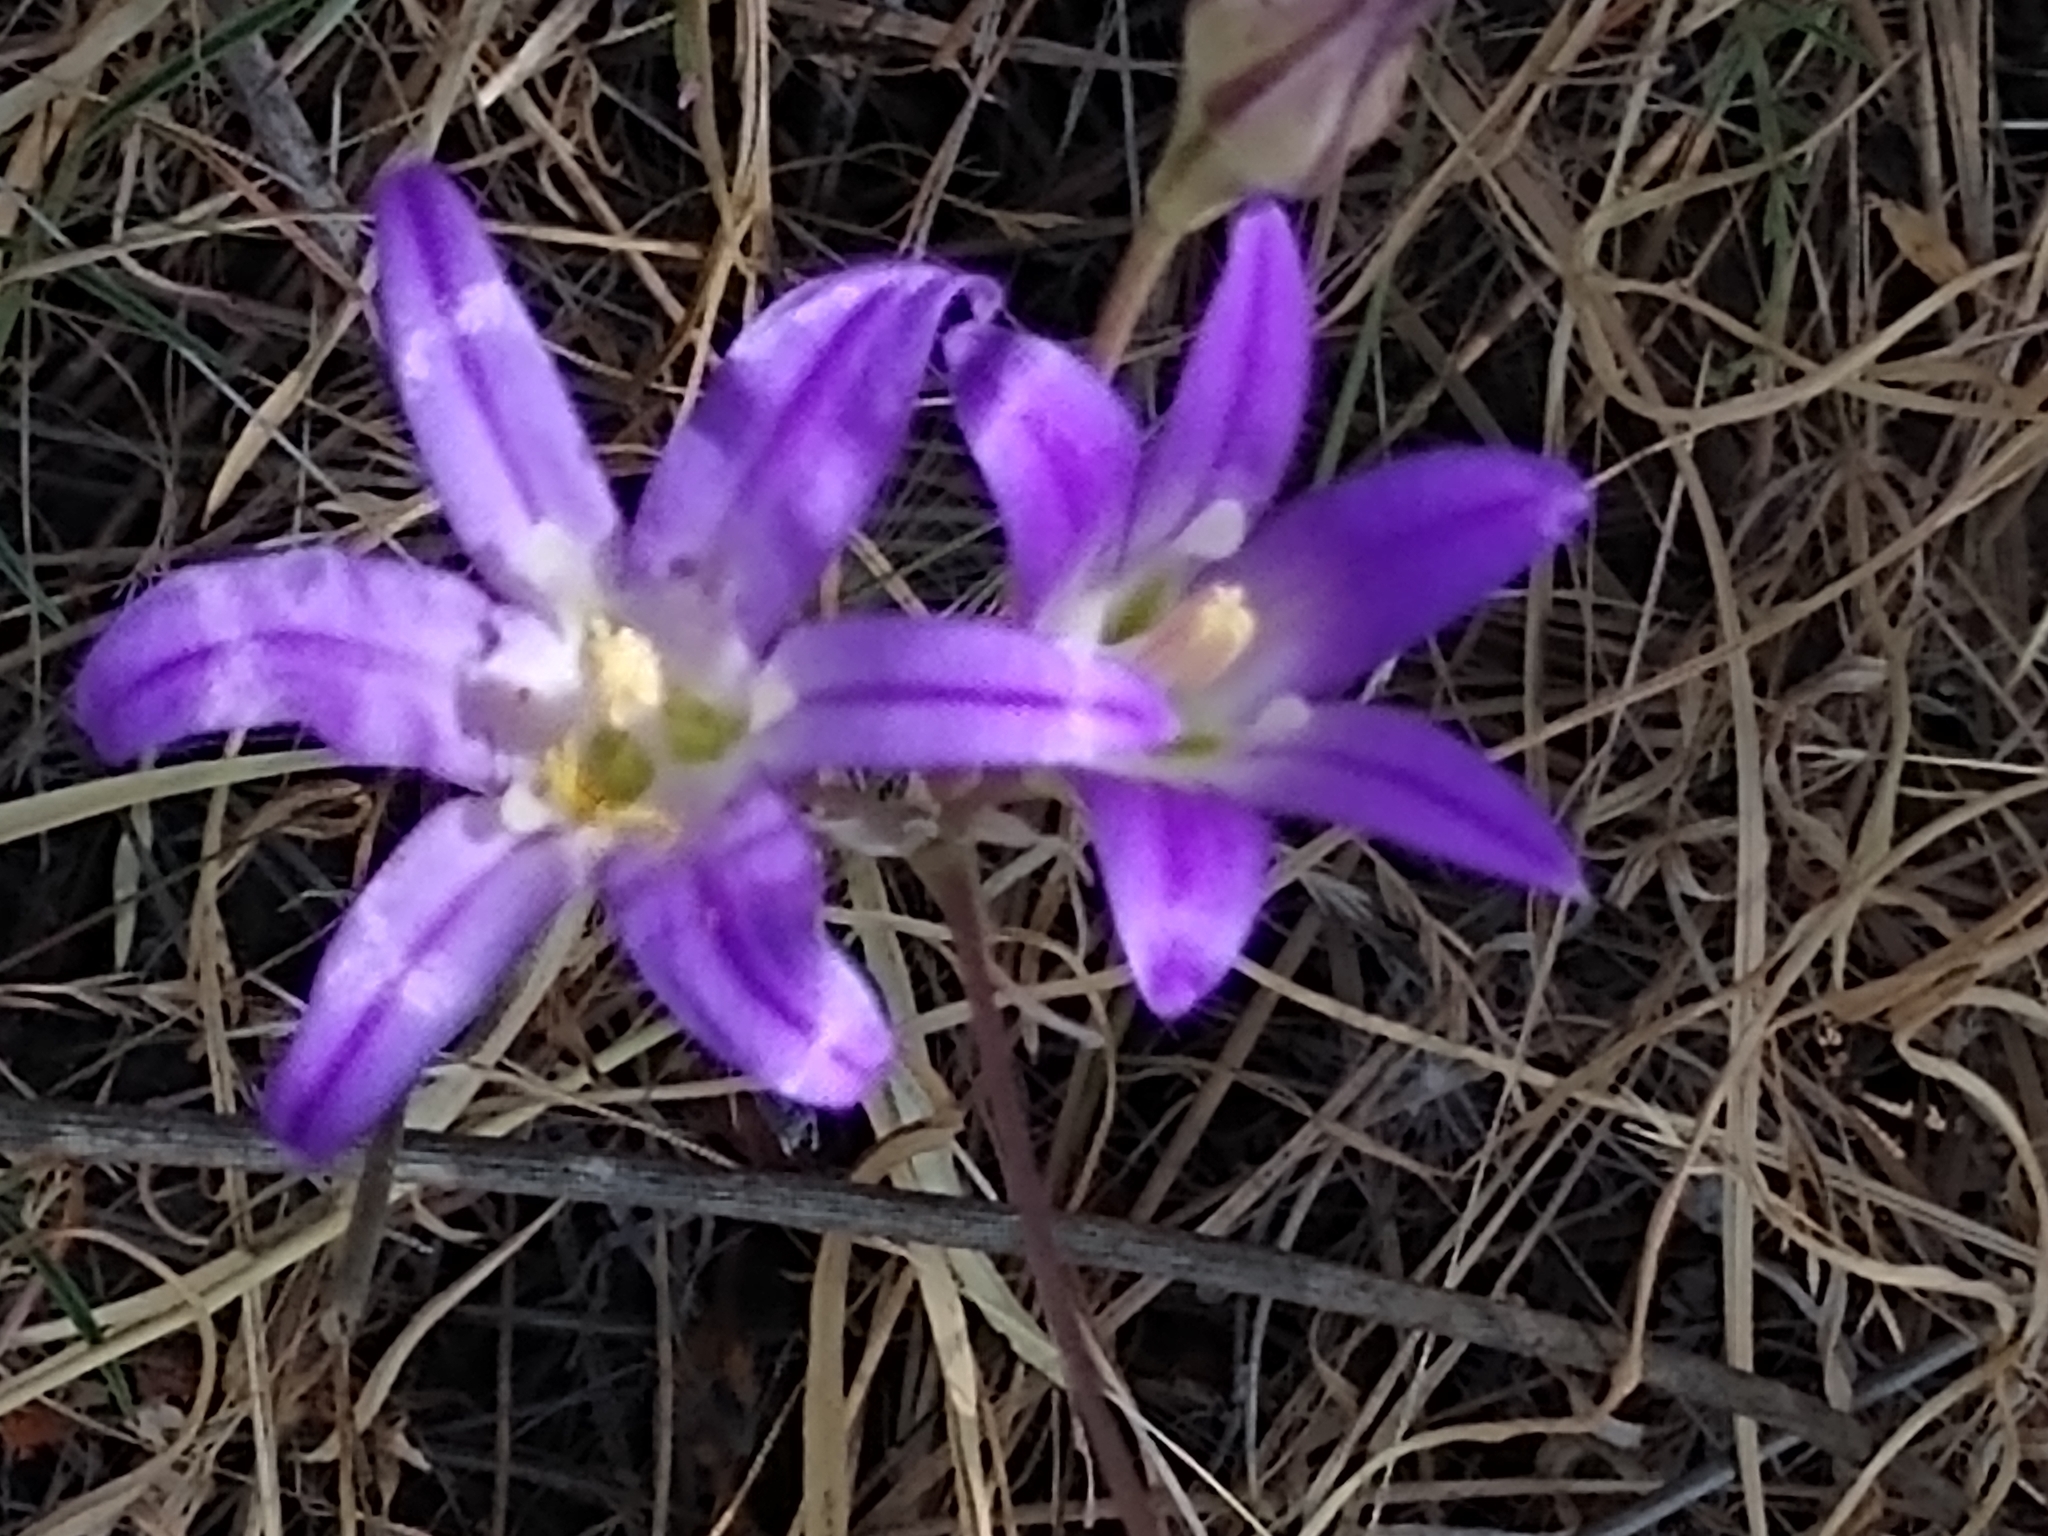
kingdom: Plantae
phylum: Tracheophyta
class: Liliopsida
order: Asparagales
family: Asparagaceae
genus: Brodiaea
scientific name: Brodiaea elegans
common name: Elegant cluster-lily
